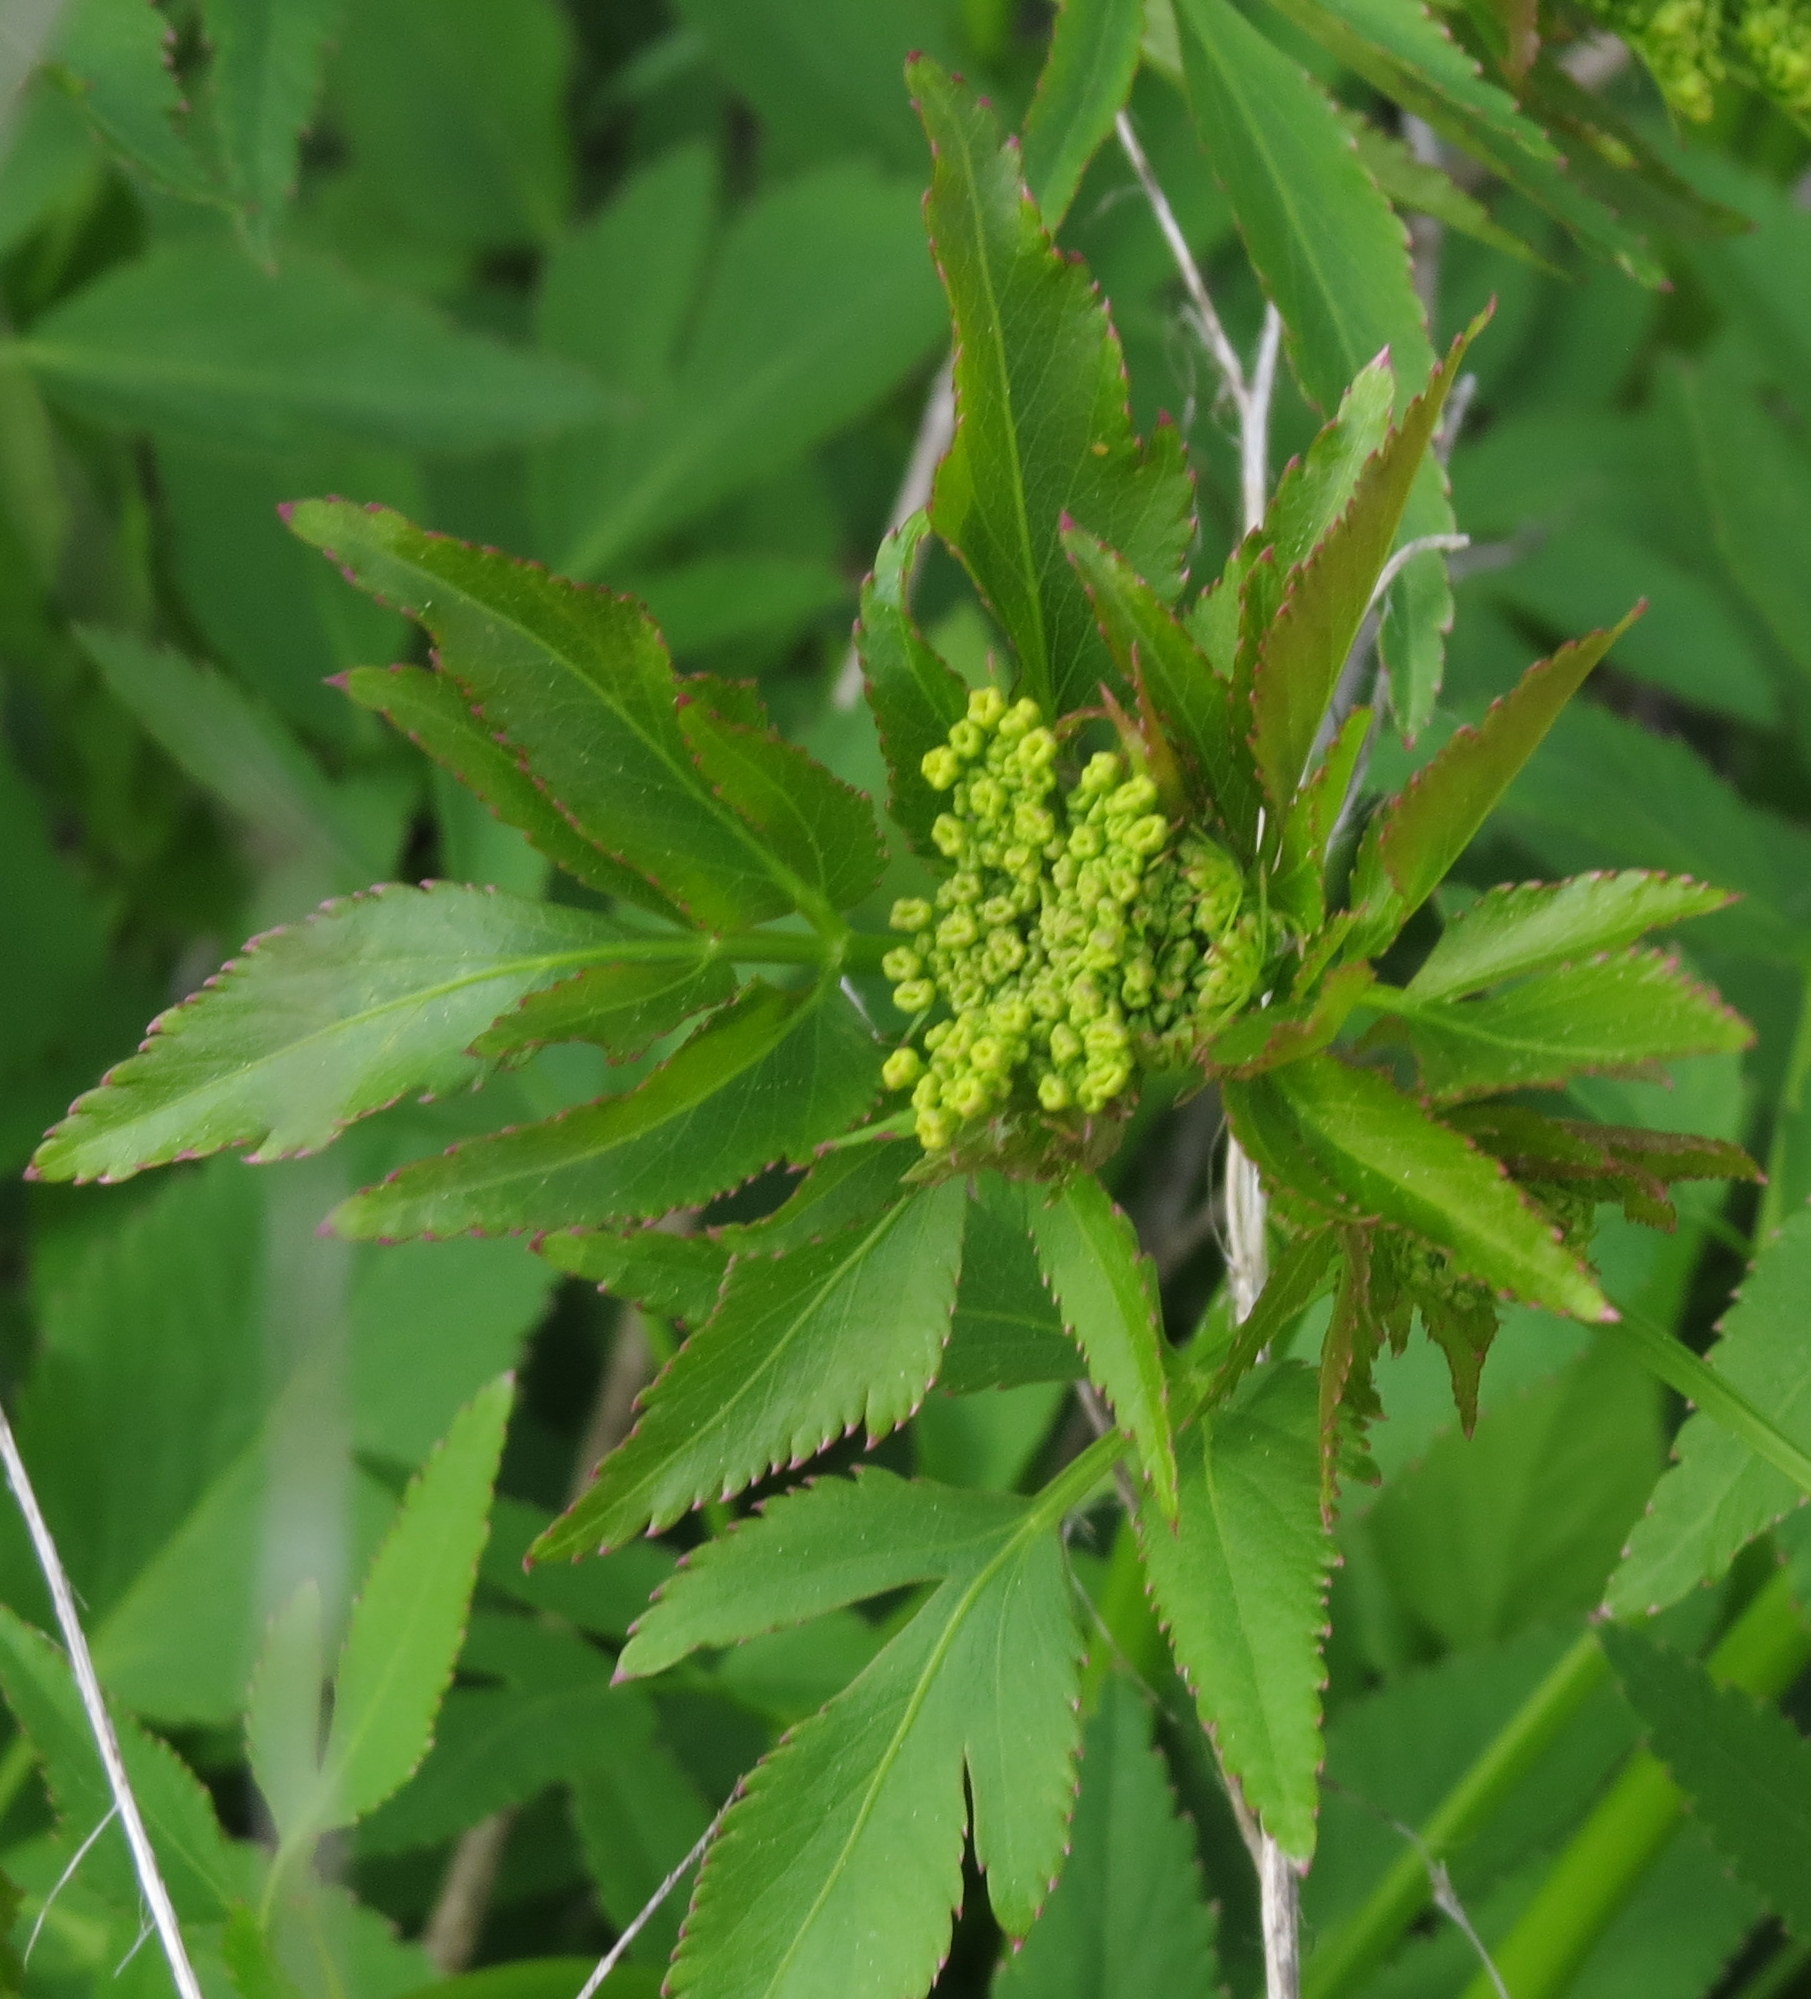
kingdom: Plantae
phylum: Tracheophyta
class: Magnoliopsida
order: Apiales
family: Apiaceae
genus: Zizia
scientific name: Zizia aurea
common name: Golden alexanders
